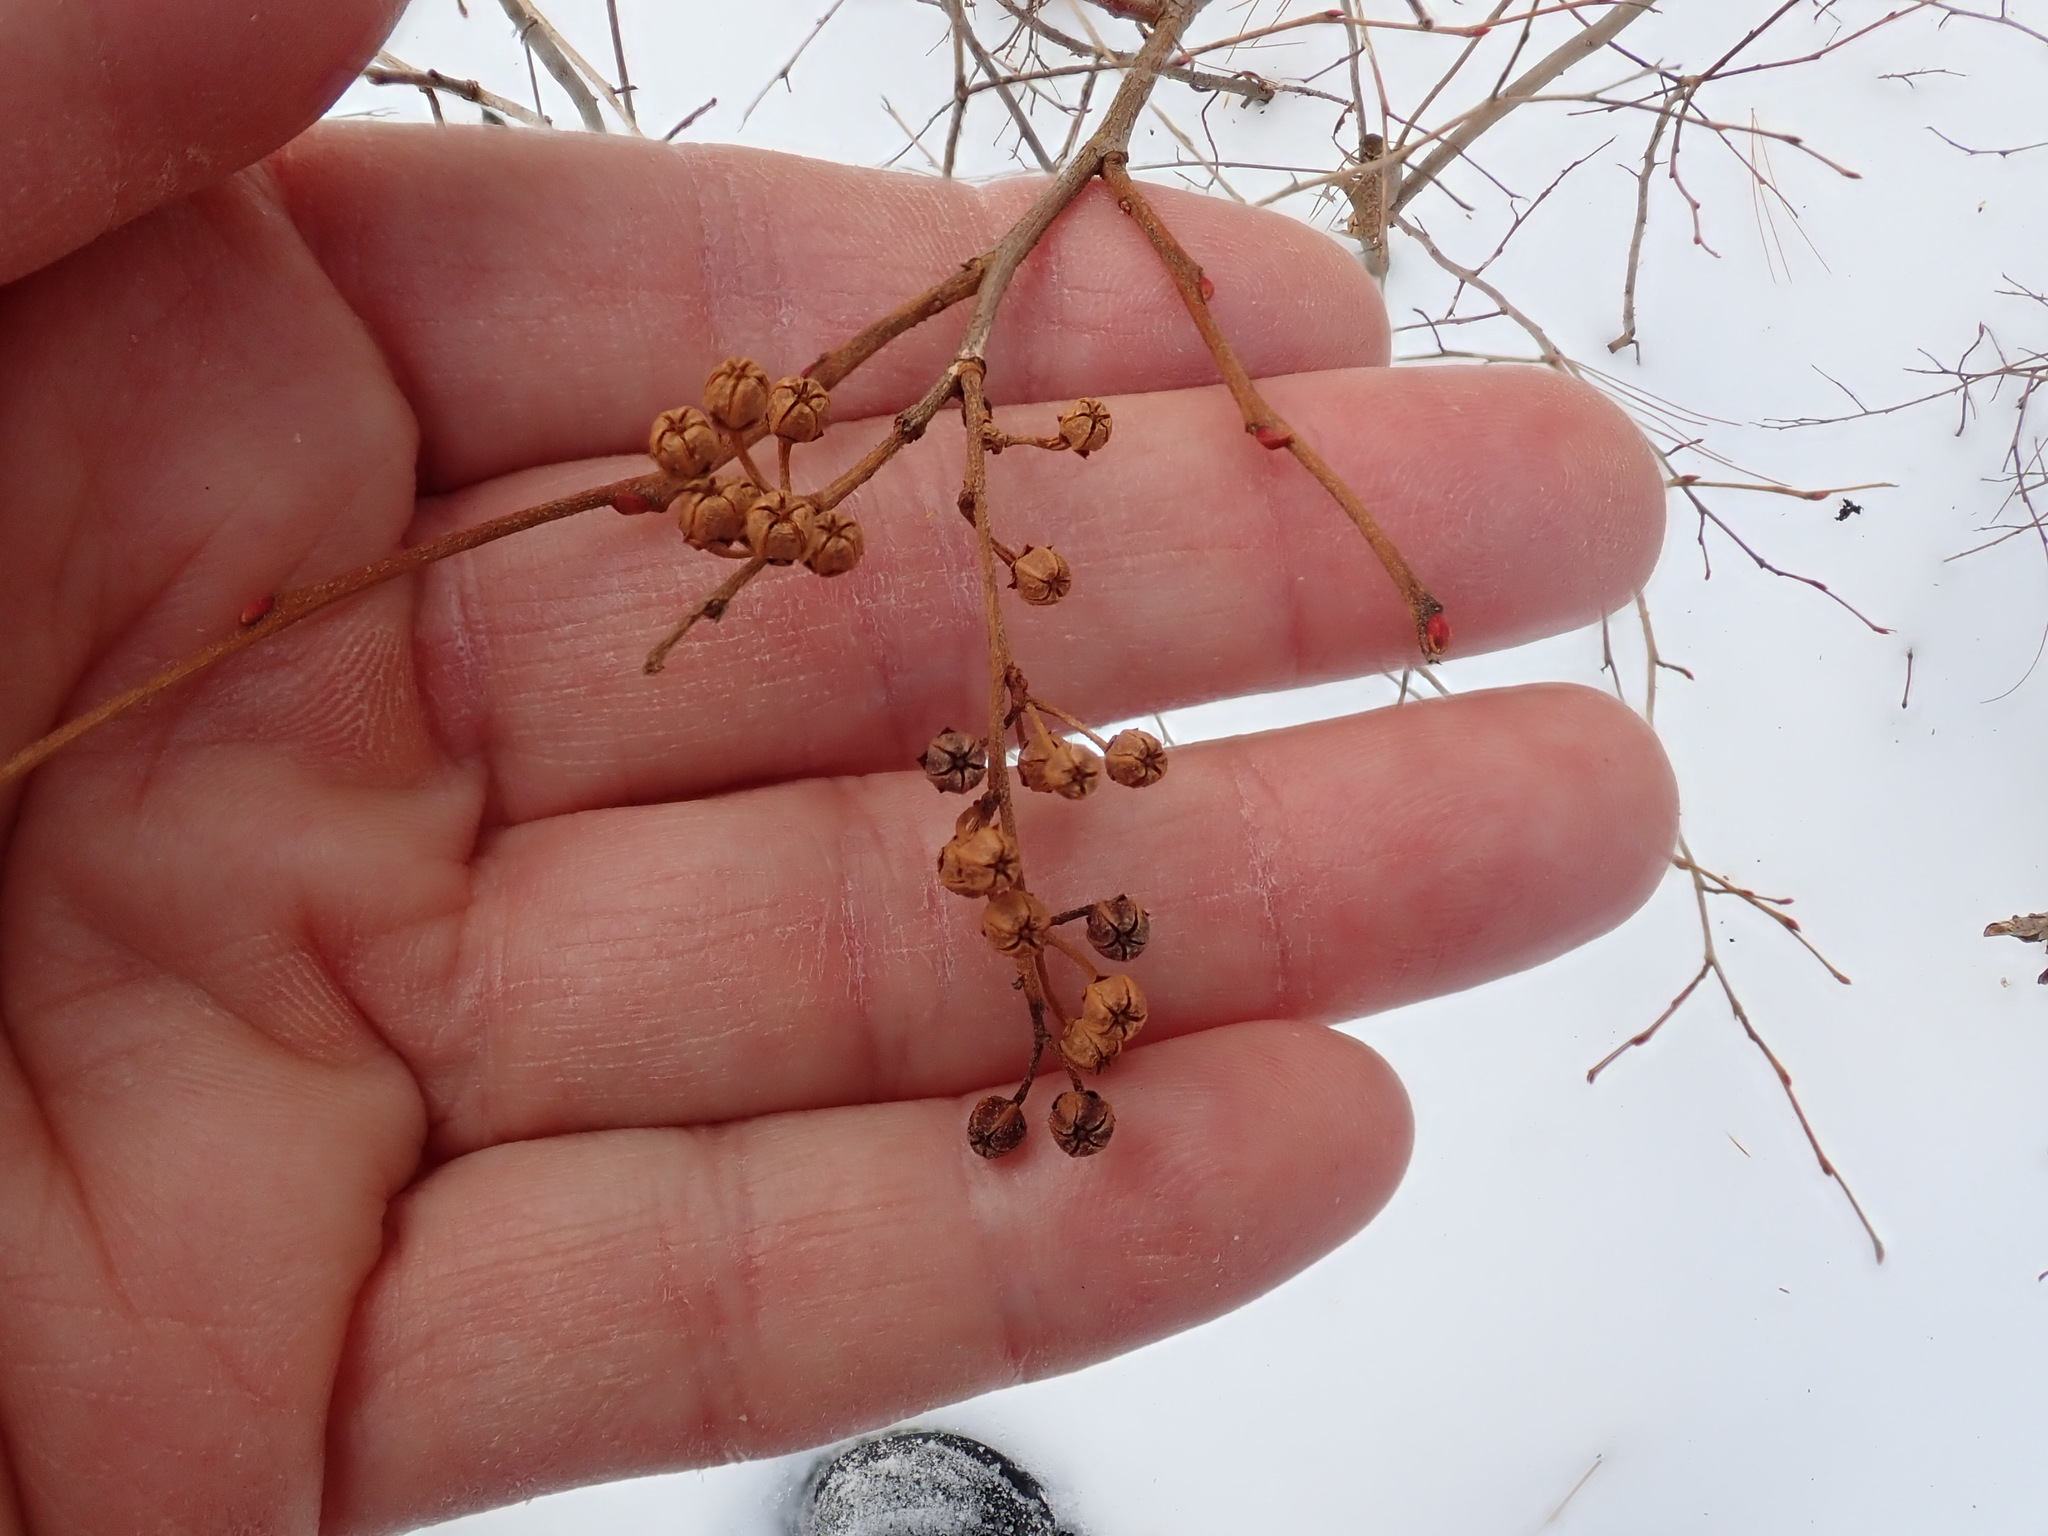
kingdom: Plantae
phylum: Tracheophyta
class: Magnoliopsida
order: Ericales
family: Ericaceae
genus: Lyonia
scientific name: Lyonia ligustrina
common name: Maleberry
